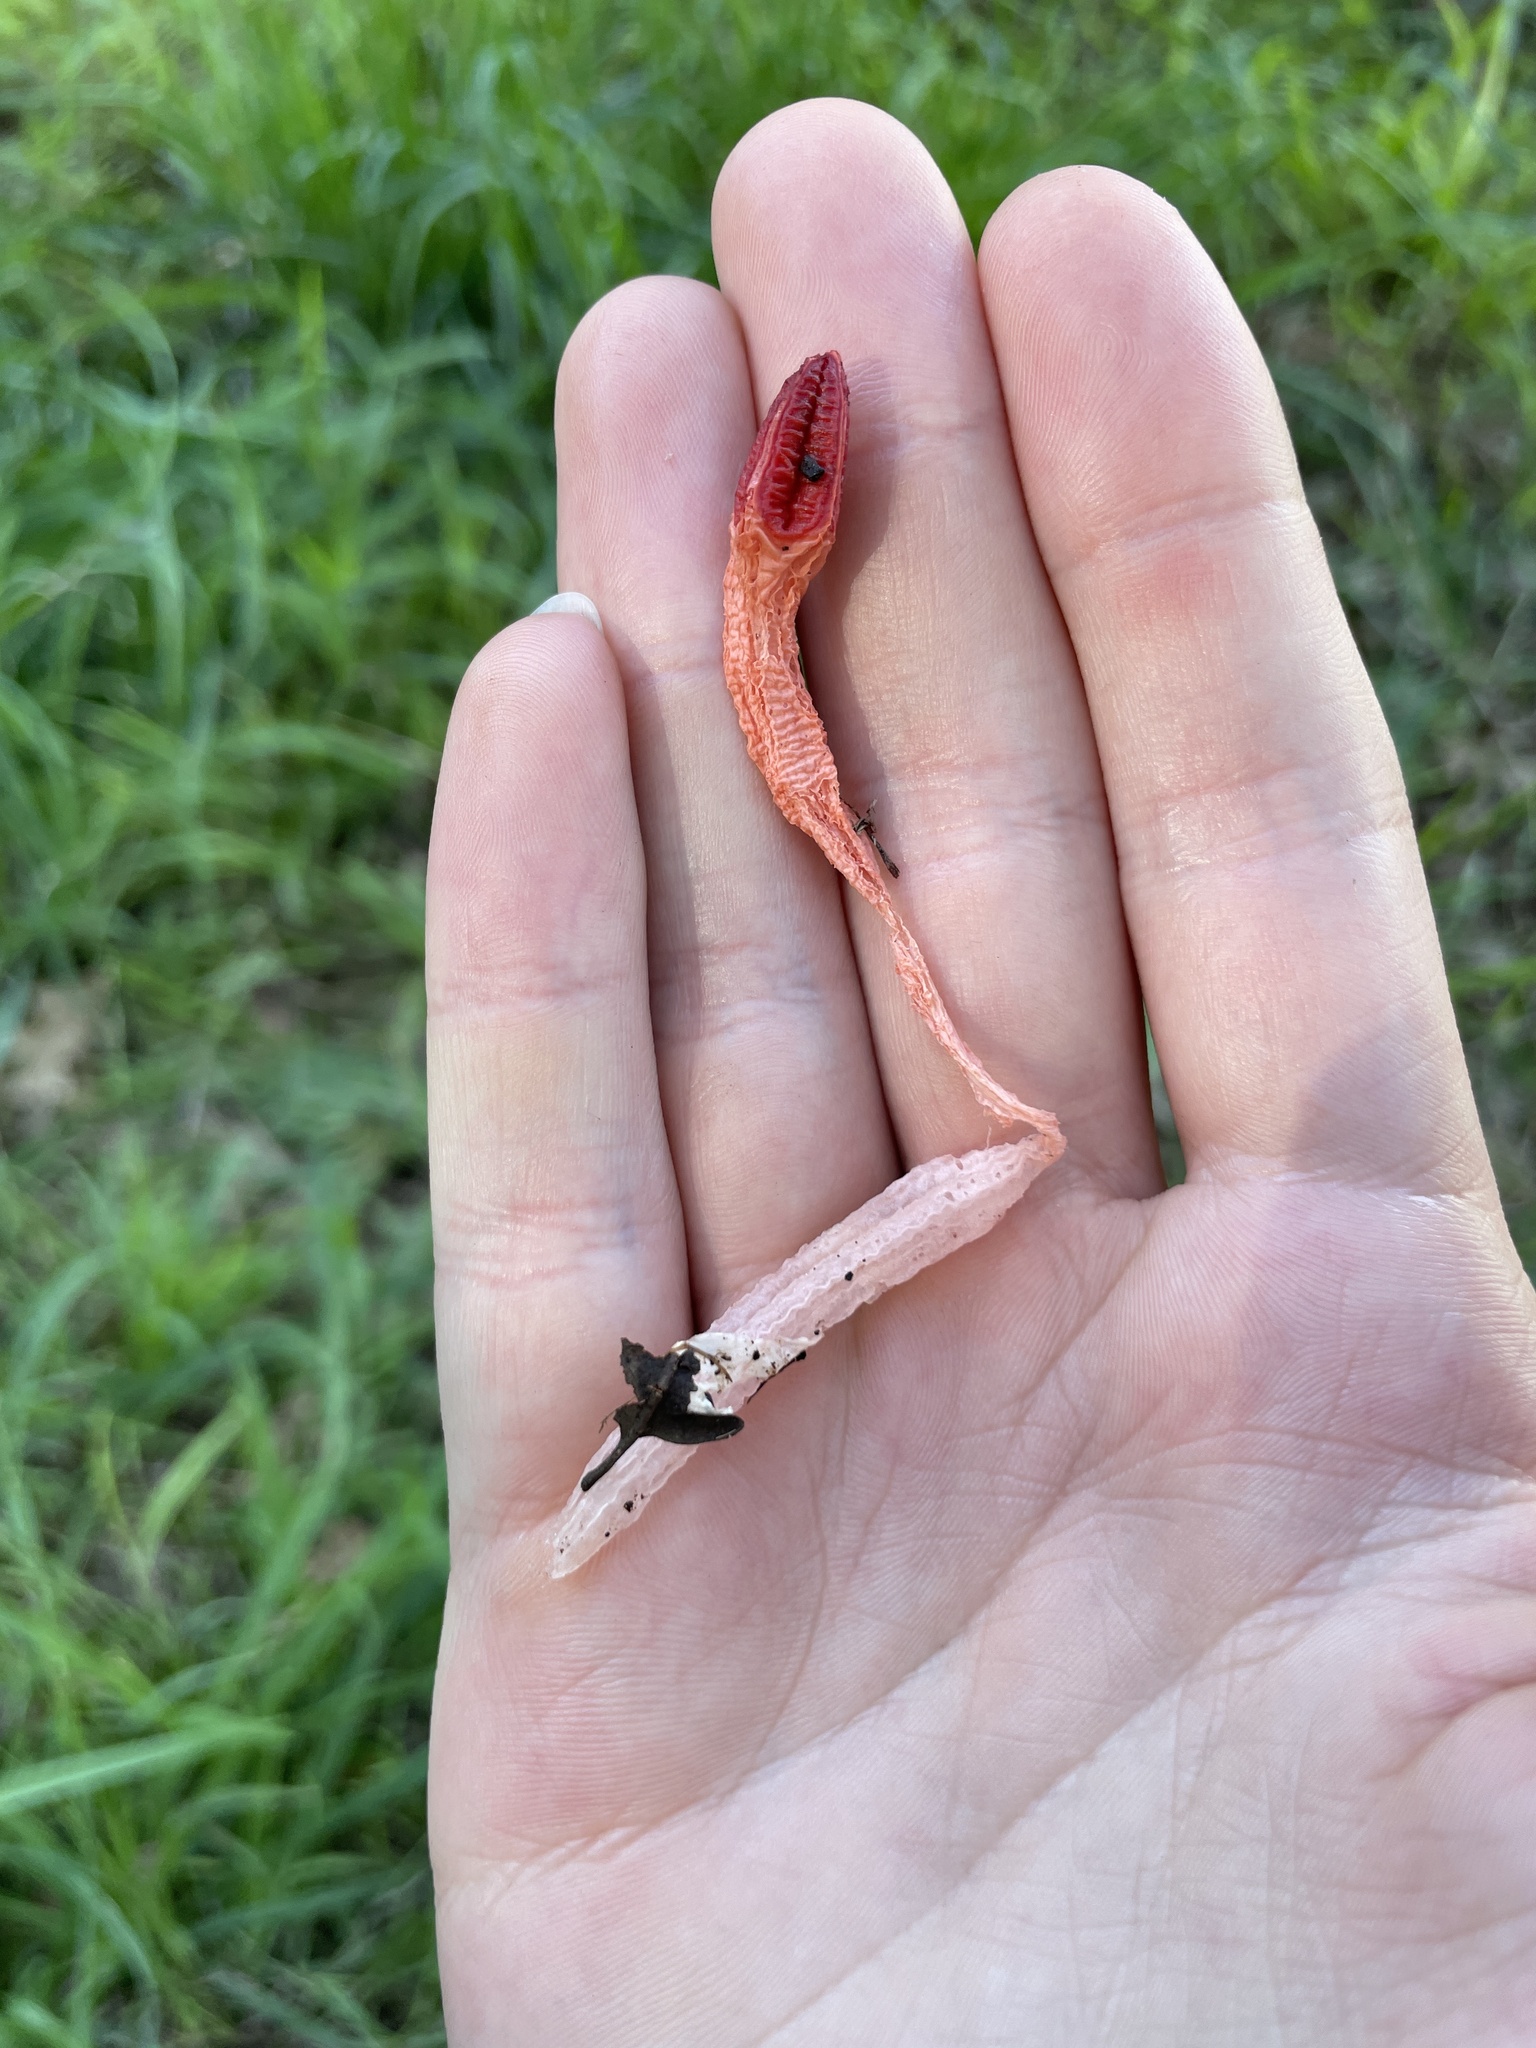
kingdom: Fungi
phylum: Basidiomycota
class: Agaricomycetes
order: Phallales
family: Phallaceae
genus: Lysurus
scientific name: Lysurus mokusin
